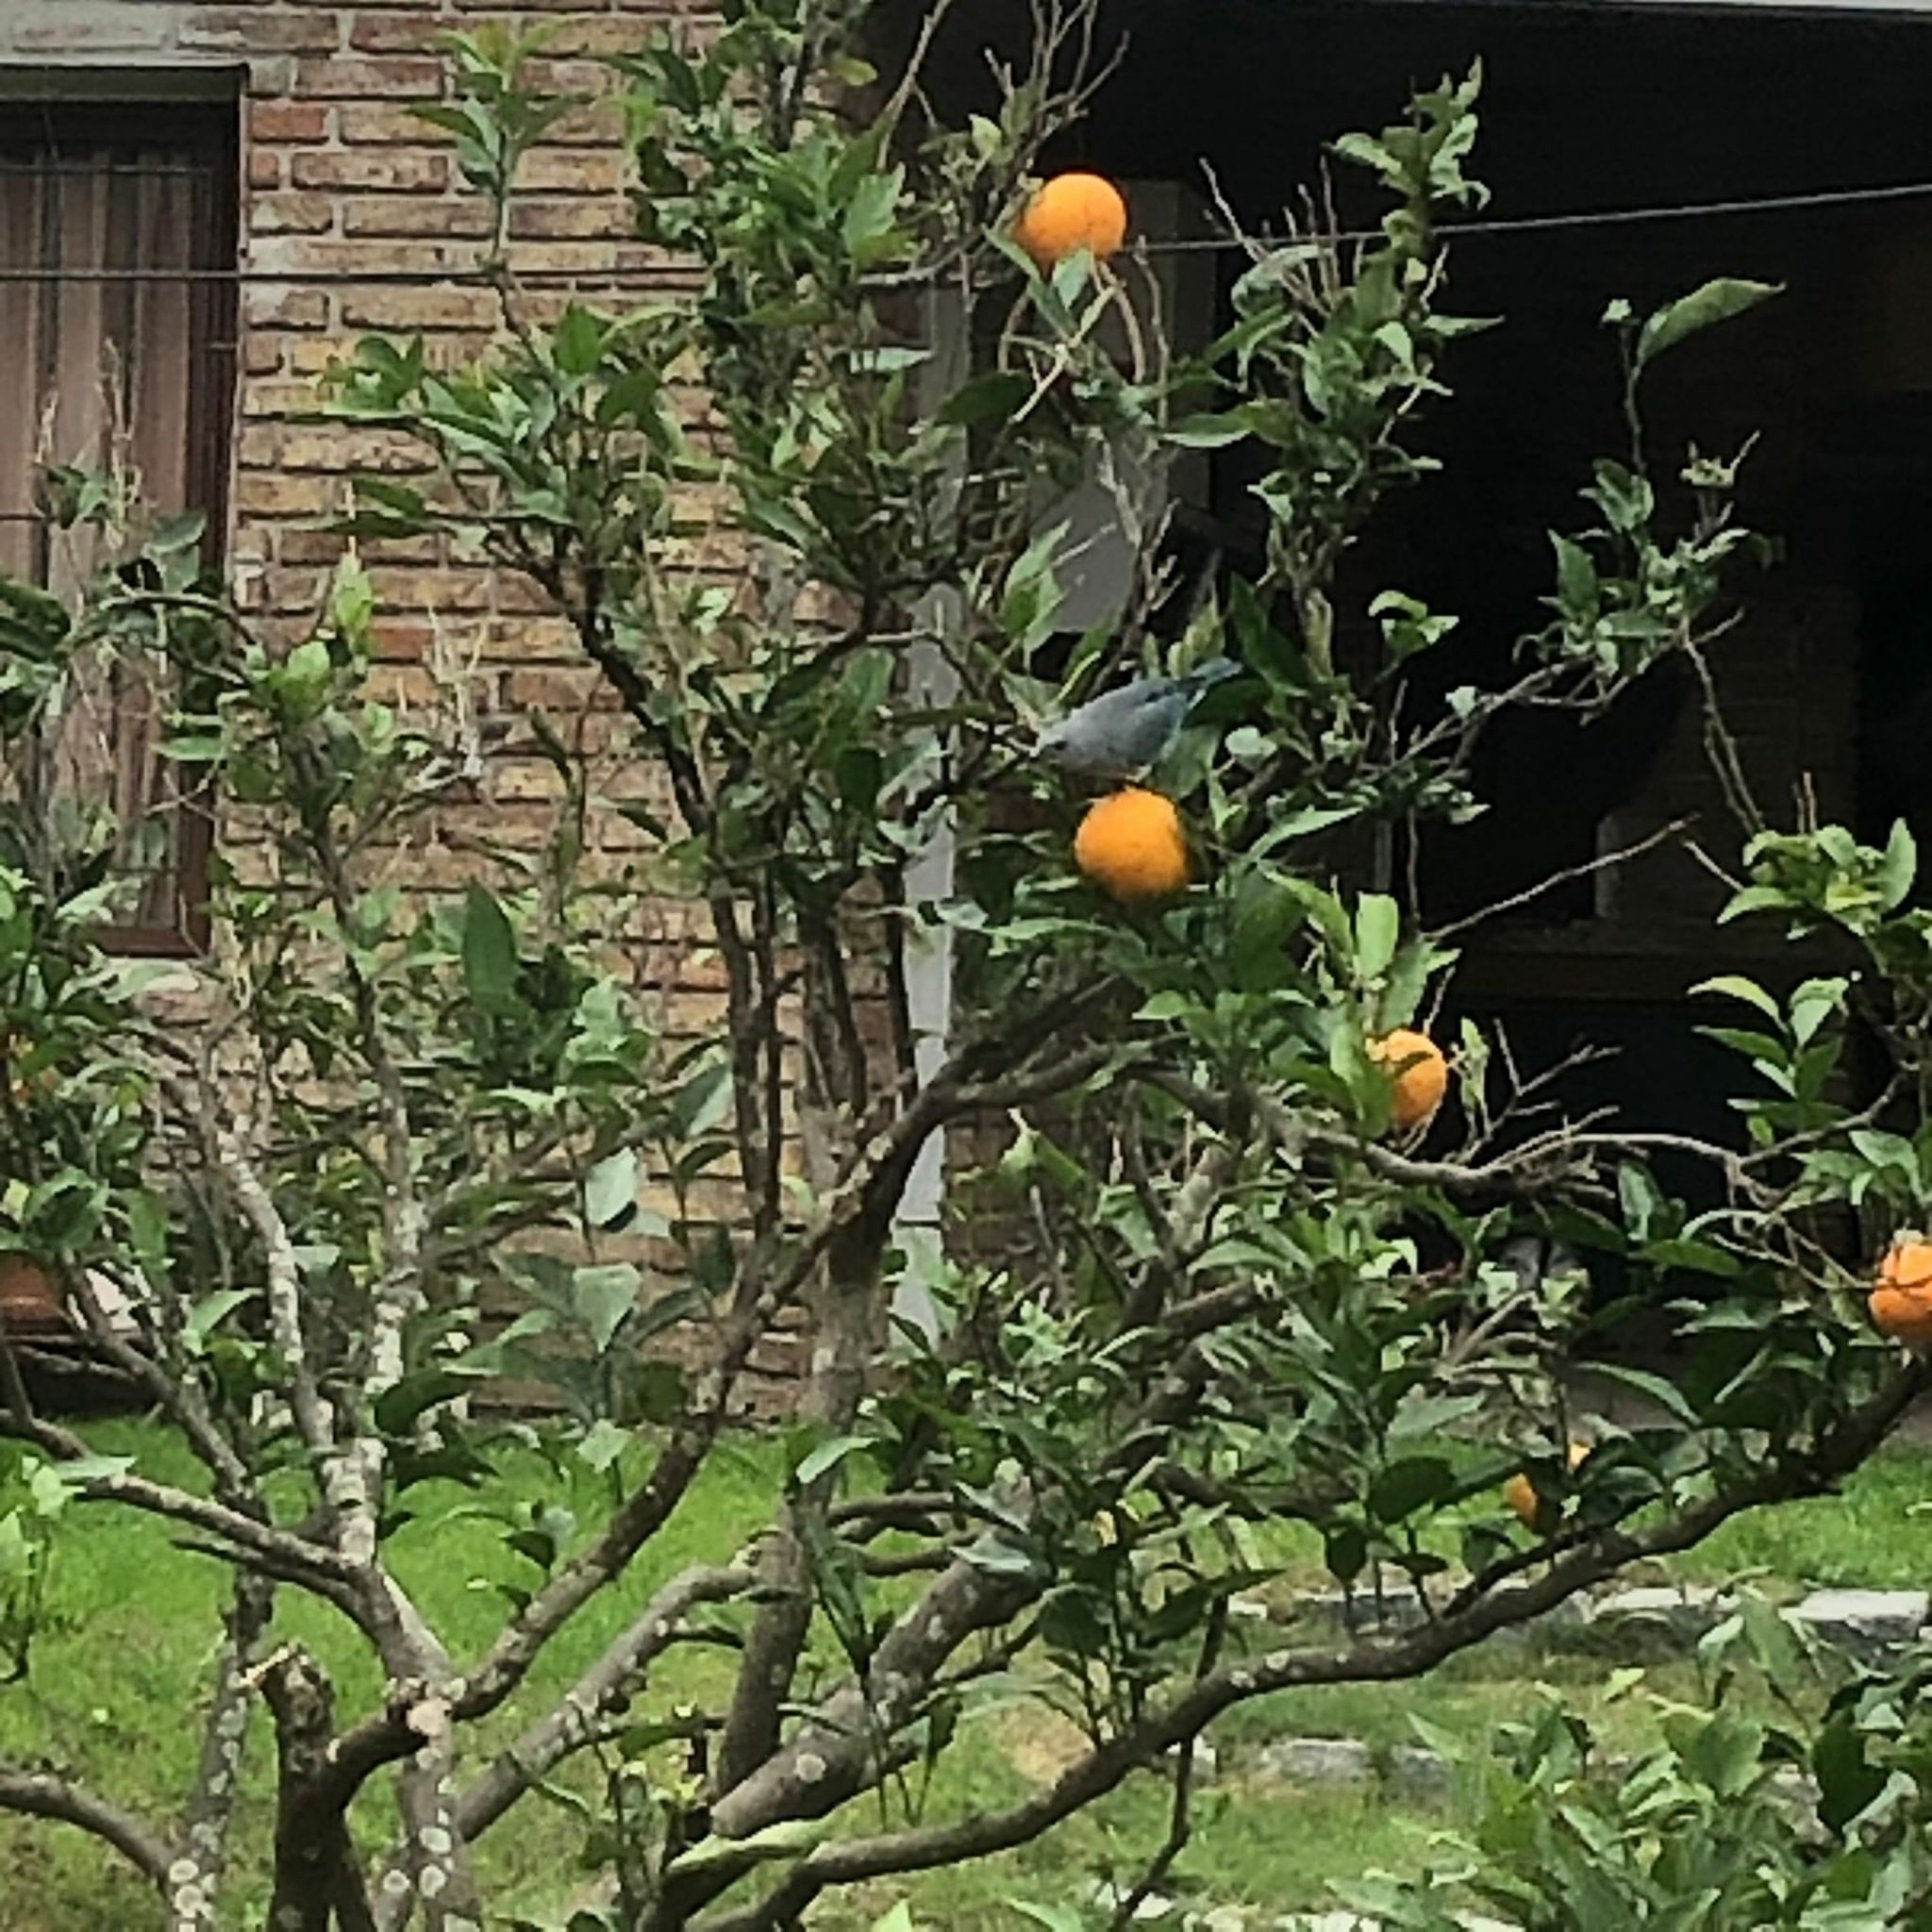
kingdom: Animalia
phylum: Chordata
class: Aves
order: Passeriformes
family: Thraupidae
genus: Thraupis
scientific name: Thraupis sayaca
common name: Sayaca tanager
